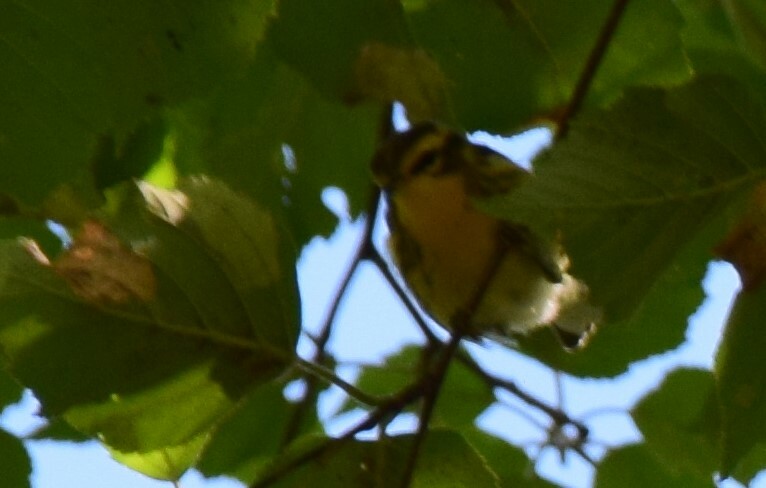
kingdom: Animalia
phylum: Chordata
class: Aves
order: Passeriformes
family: Parulidae
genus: Setophaga
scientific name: Setophaga fusca
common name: Blackburnian warbler
